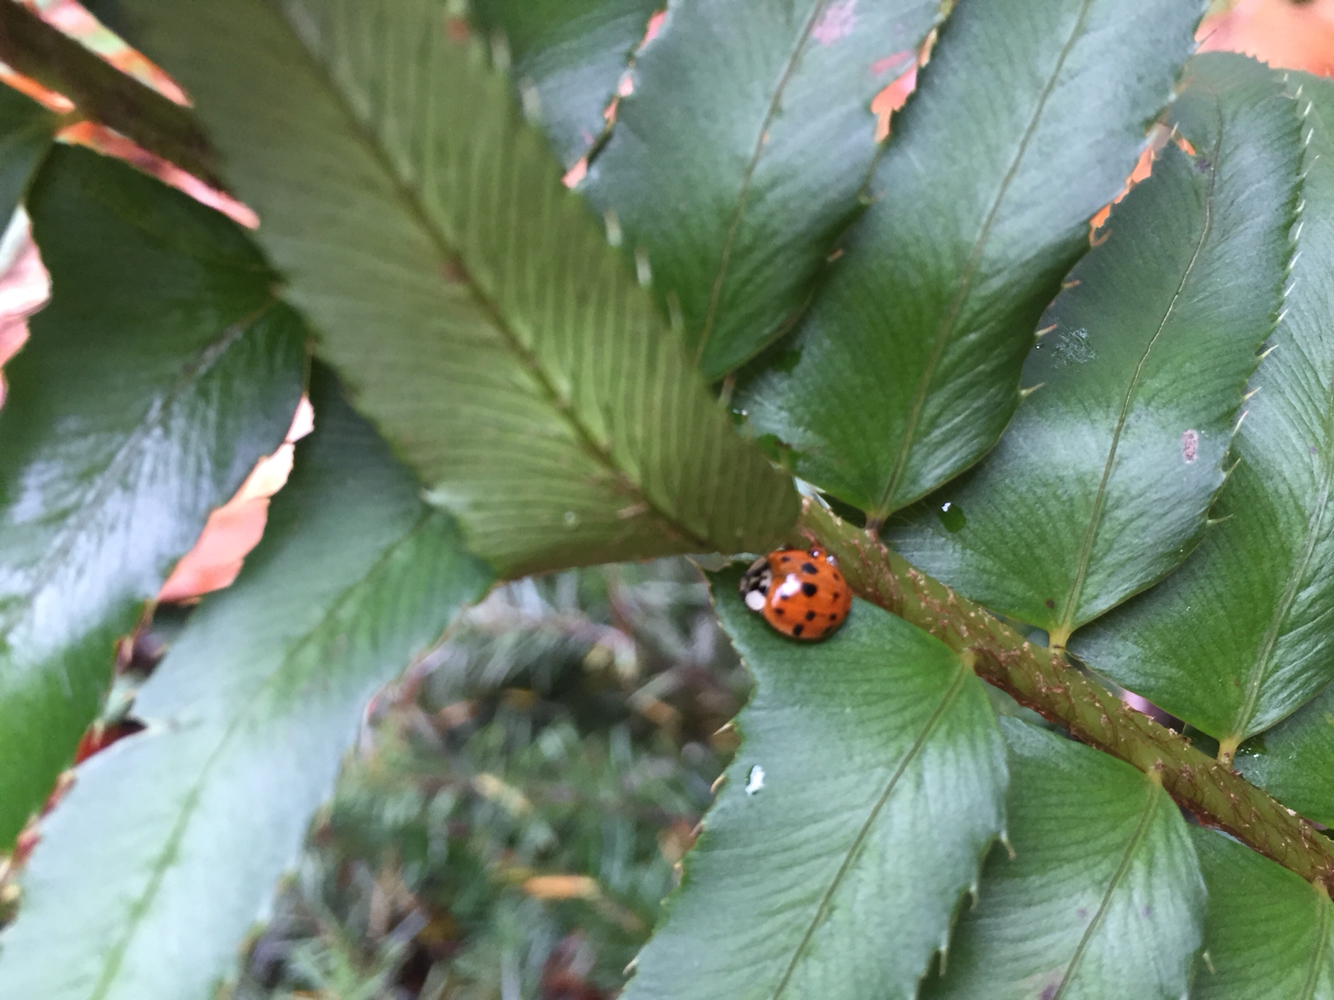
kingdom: Animalia
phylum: Arthropoda
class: Insecta
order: Coleoptera
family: Coccinellidae
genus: Harmonia
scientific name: Harmonia axyridis
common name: Harlequin ladybird
